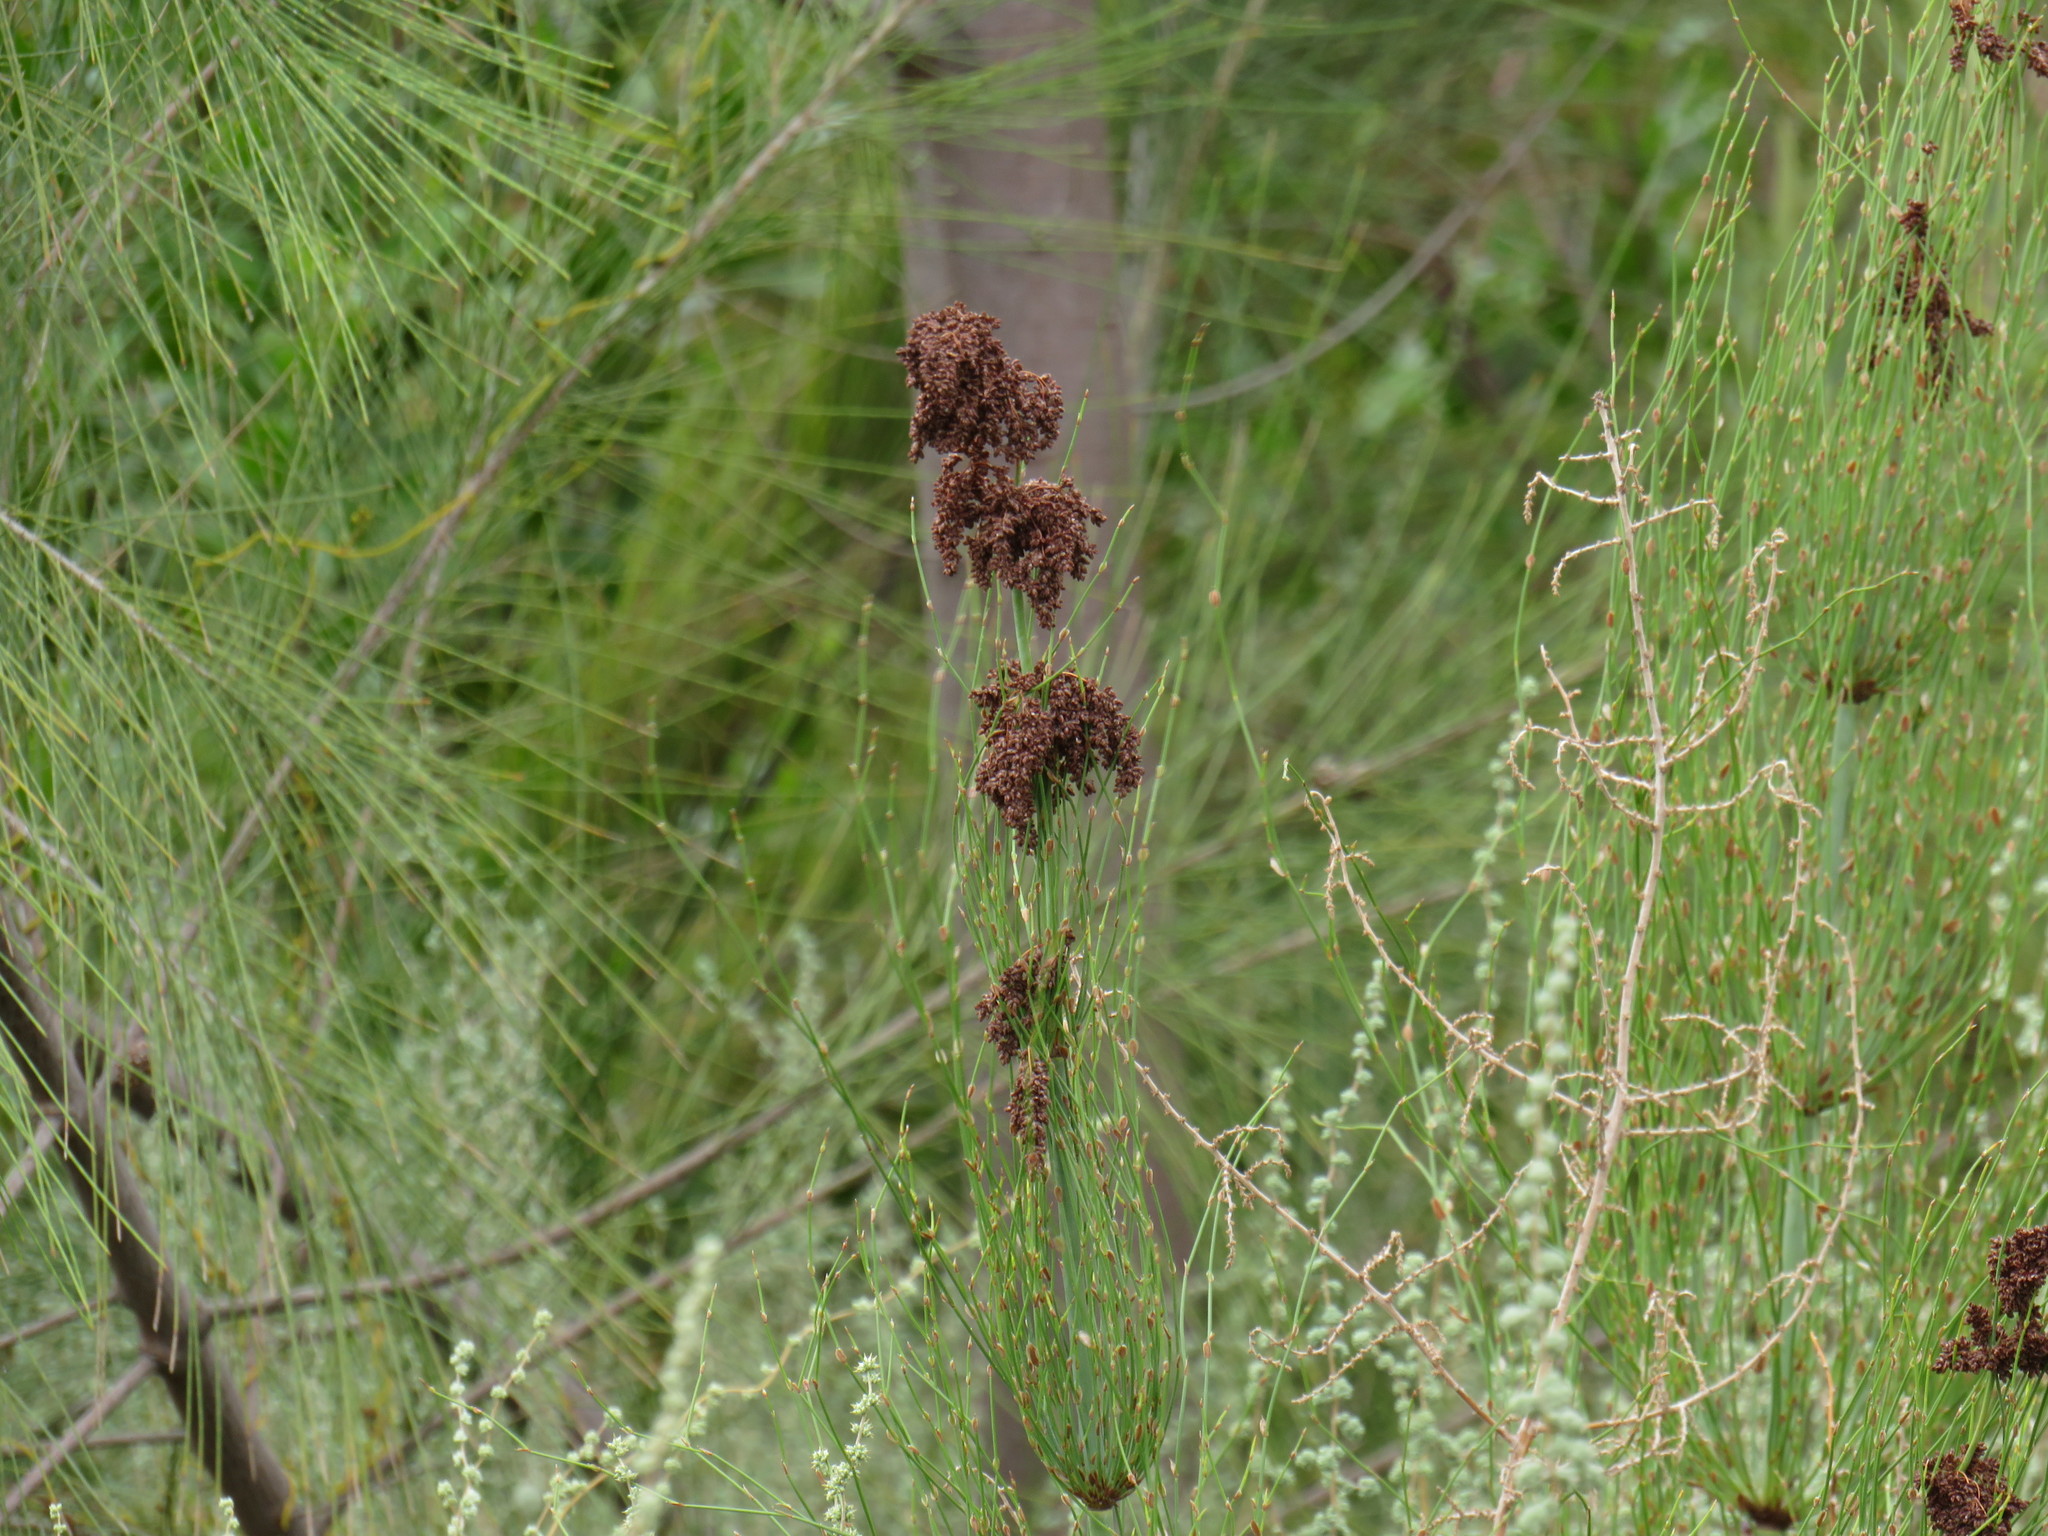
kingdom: Plantae
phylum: Tracheophyta
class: Liliopsida
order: Poales
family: Restionaceae
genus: Elegia
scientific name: Elegia capensis
